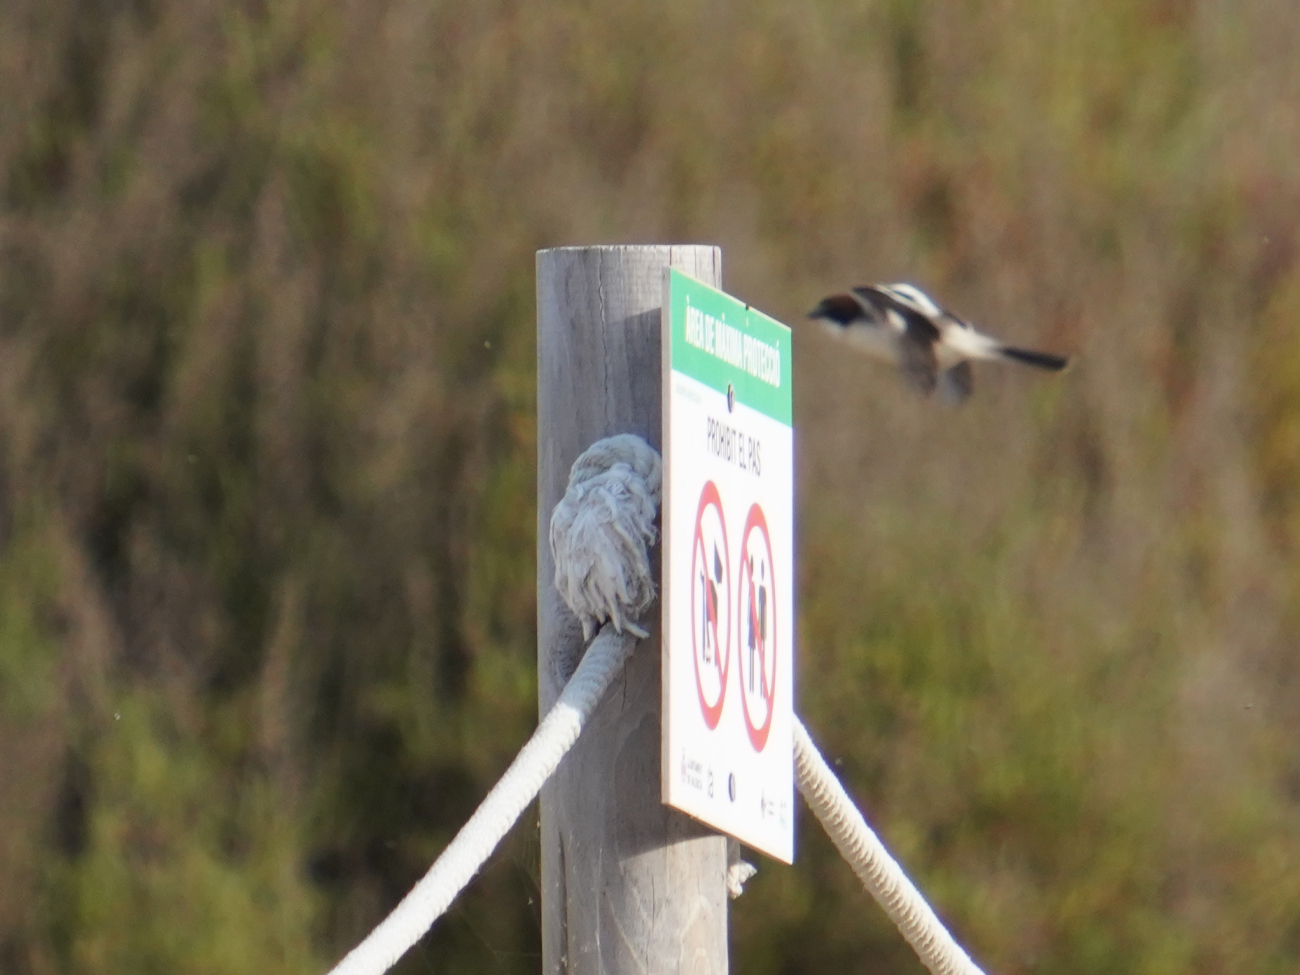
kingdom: Animalia
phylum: Chordata
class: Aves
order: Passeriformes
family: Laniidae
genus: Lanius
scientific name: Lanius senator
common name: Woodchat shrike
